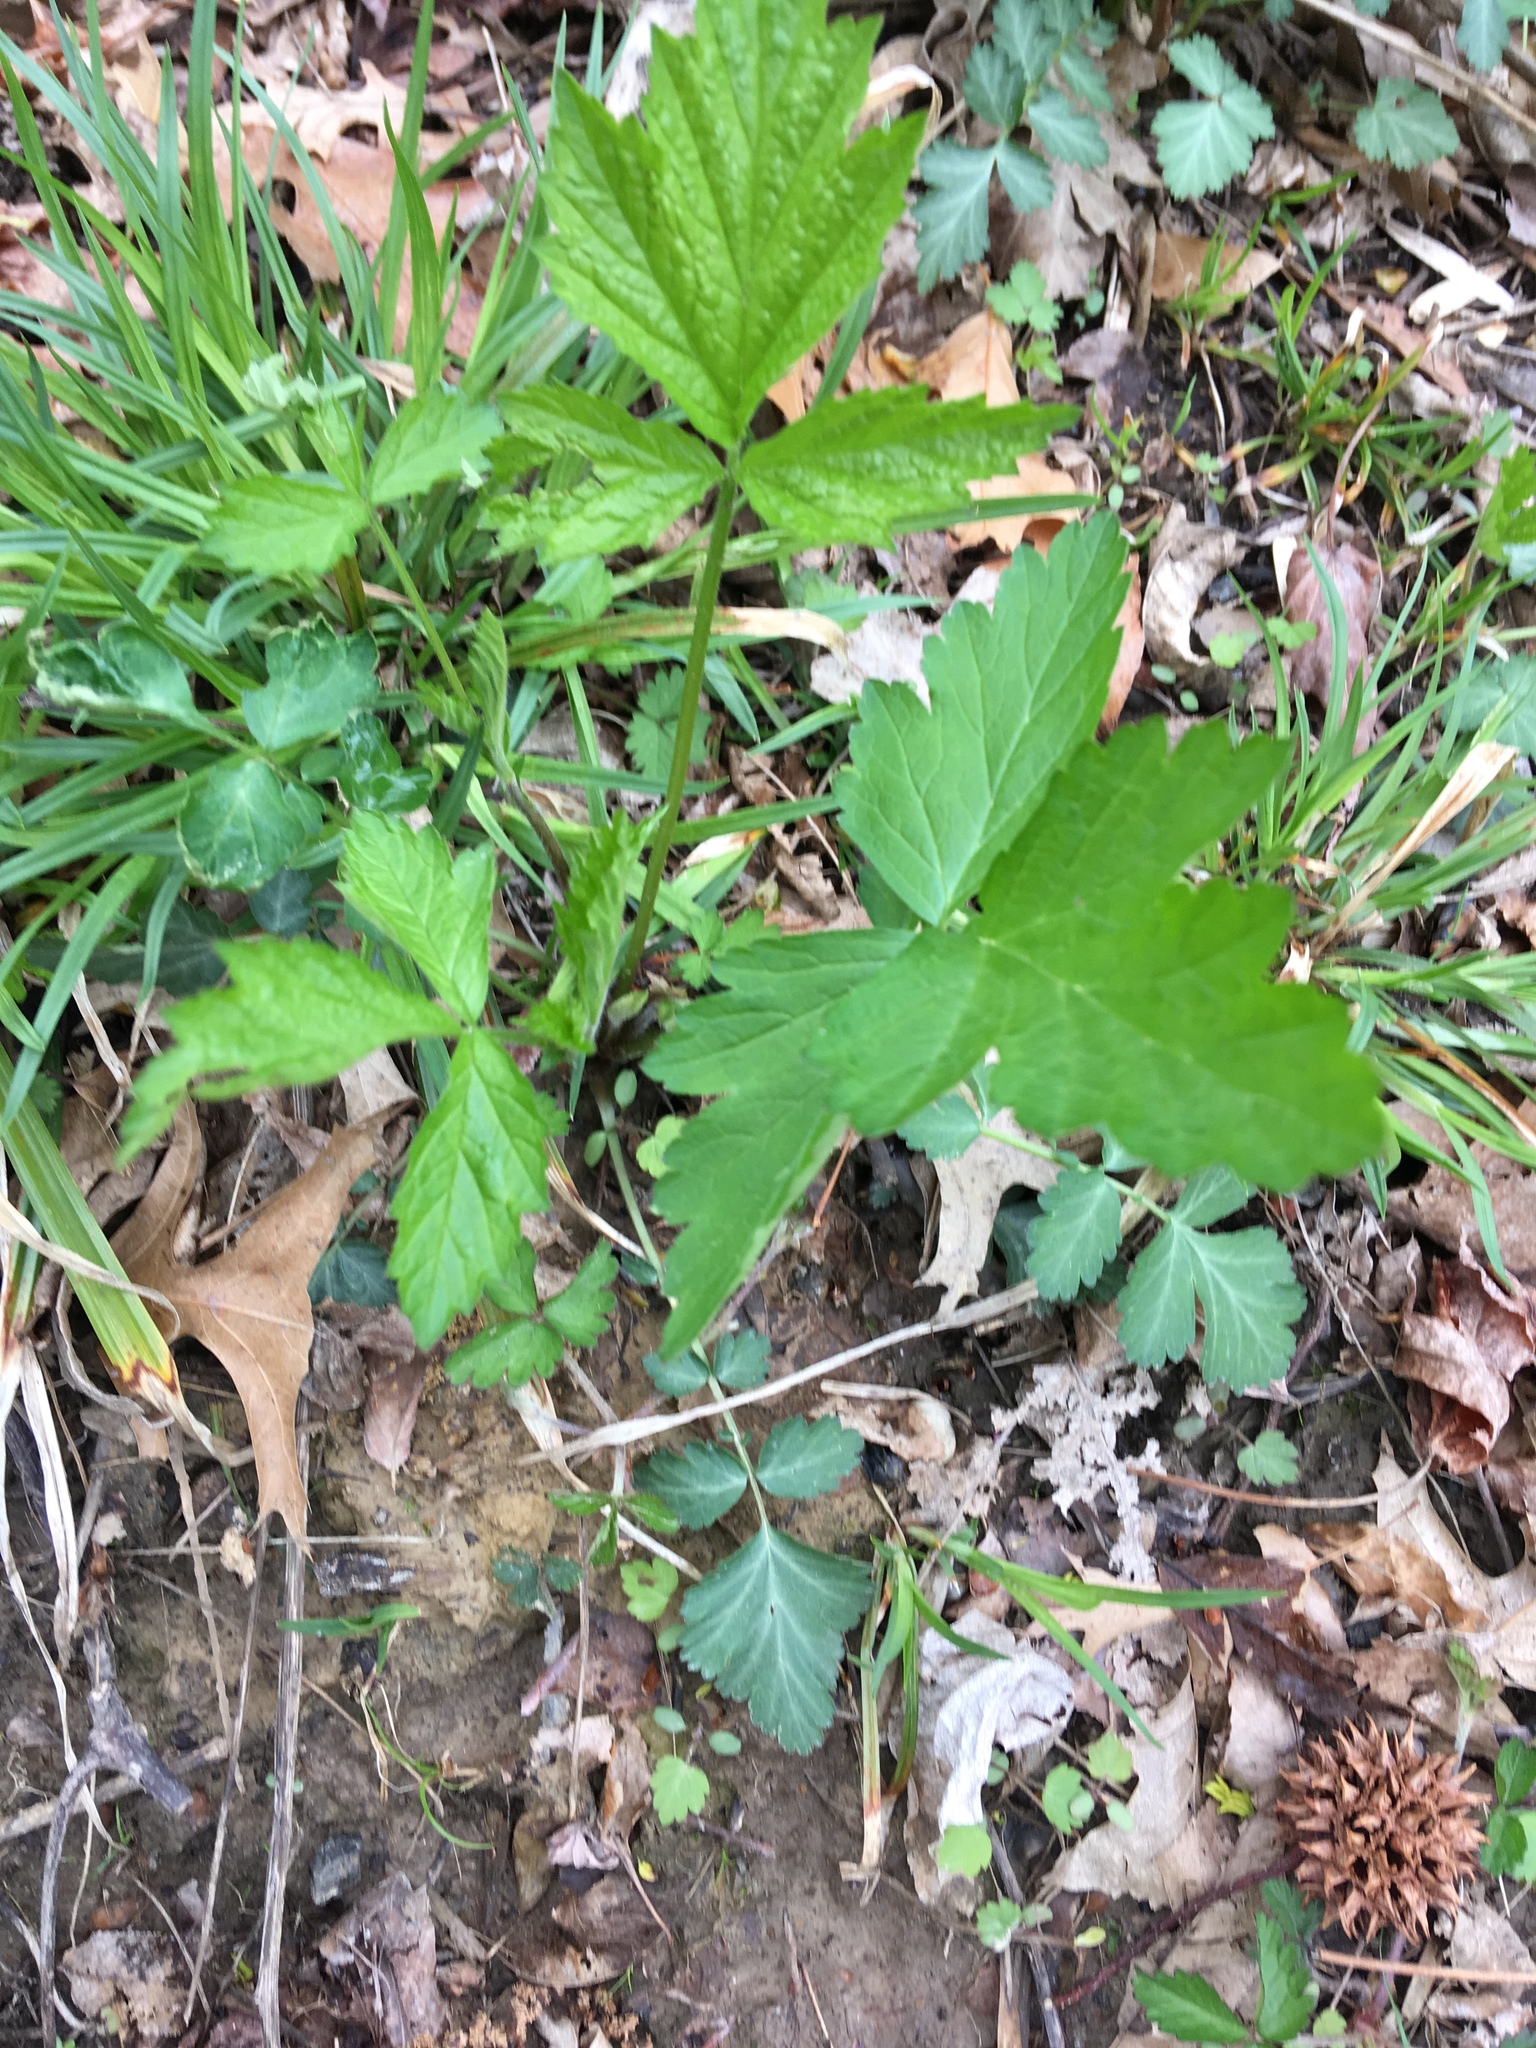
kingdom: Plantae
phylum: Tracheophyta
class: Magnoliopsida
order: Rosales
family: Rosaceae
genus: Geum
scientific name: Geum canadense
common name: White avens
